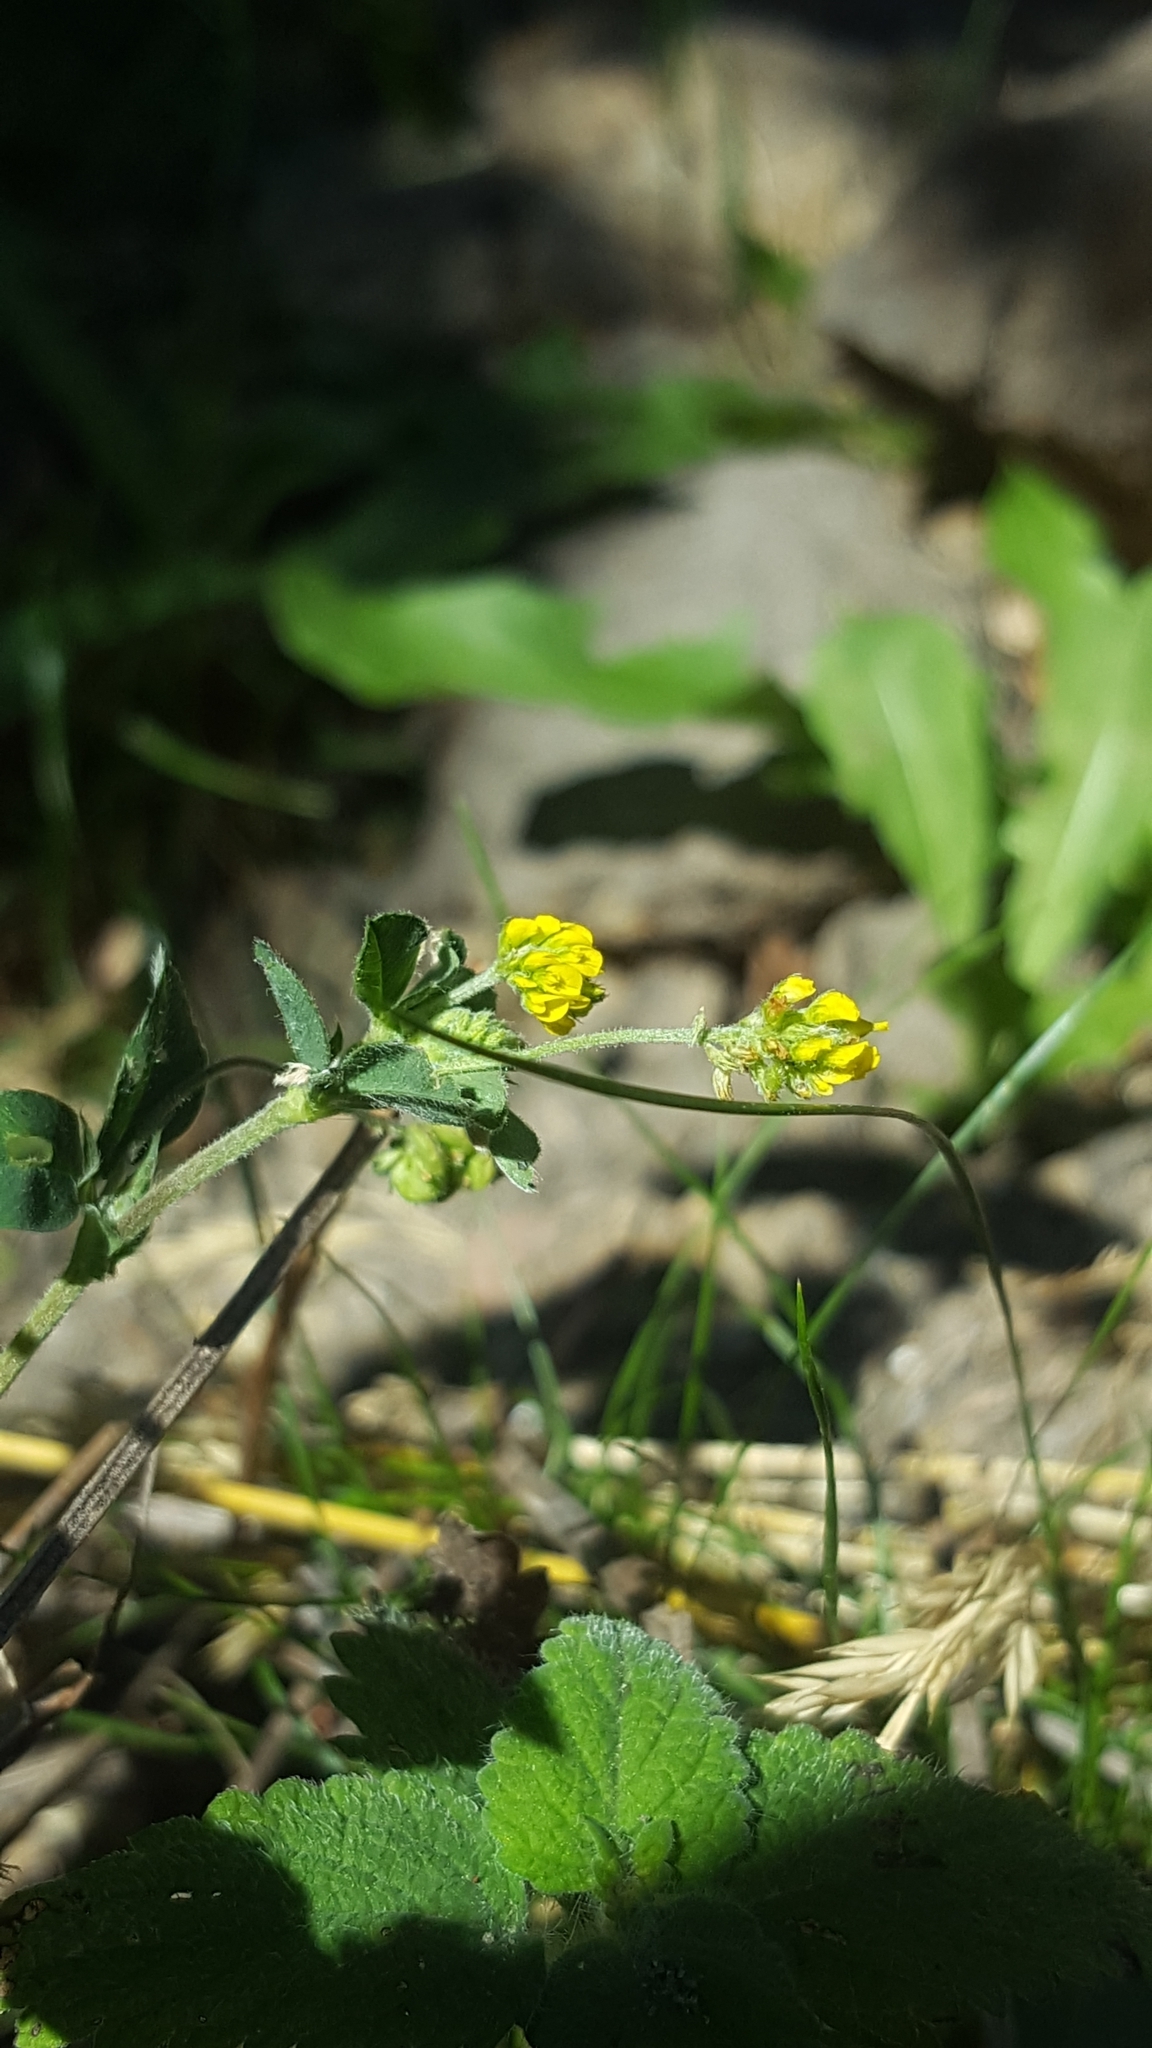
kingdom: Plantae
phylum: Tracheophyta
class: Magnoliopsida
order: Fabales
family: Fabaceae
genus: Medicago
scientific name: Medicago lupulina
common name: Black medick
